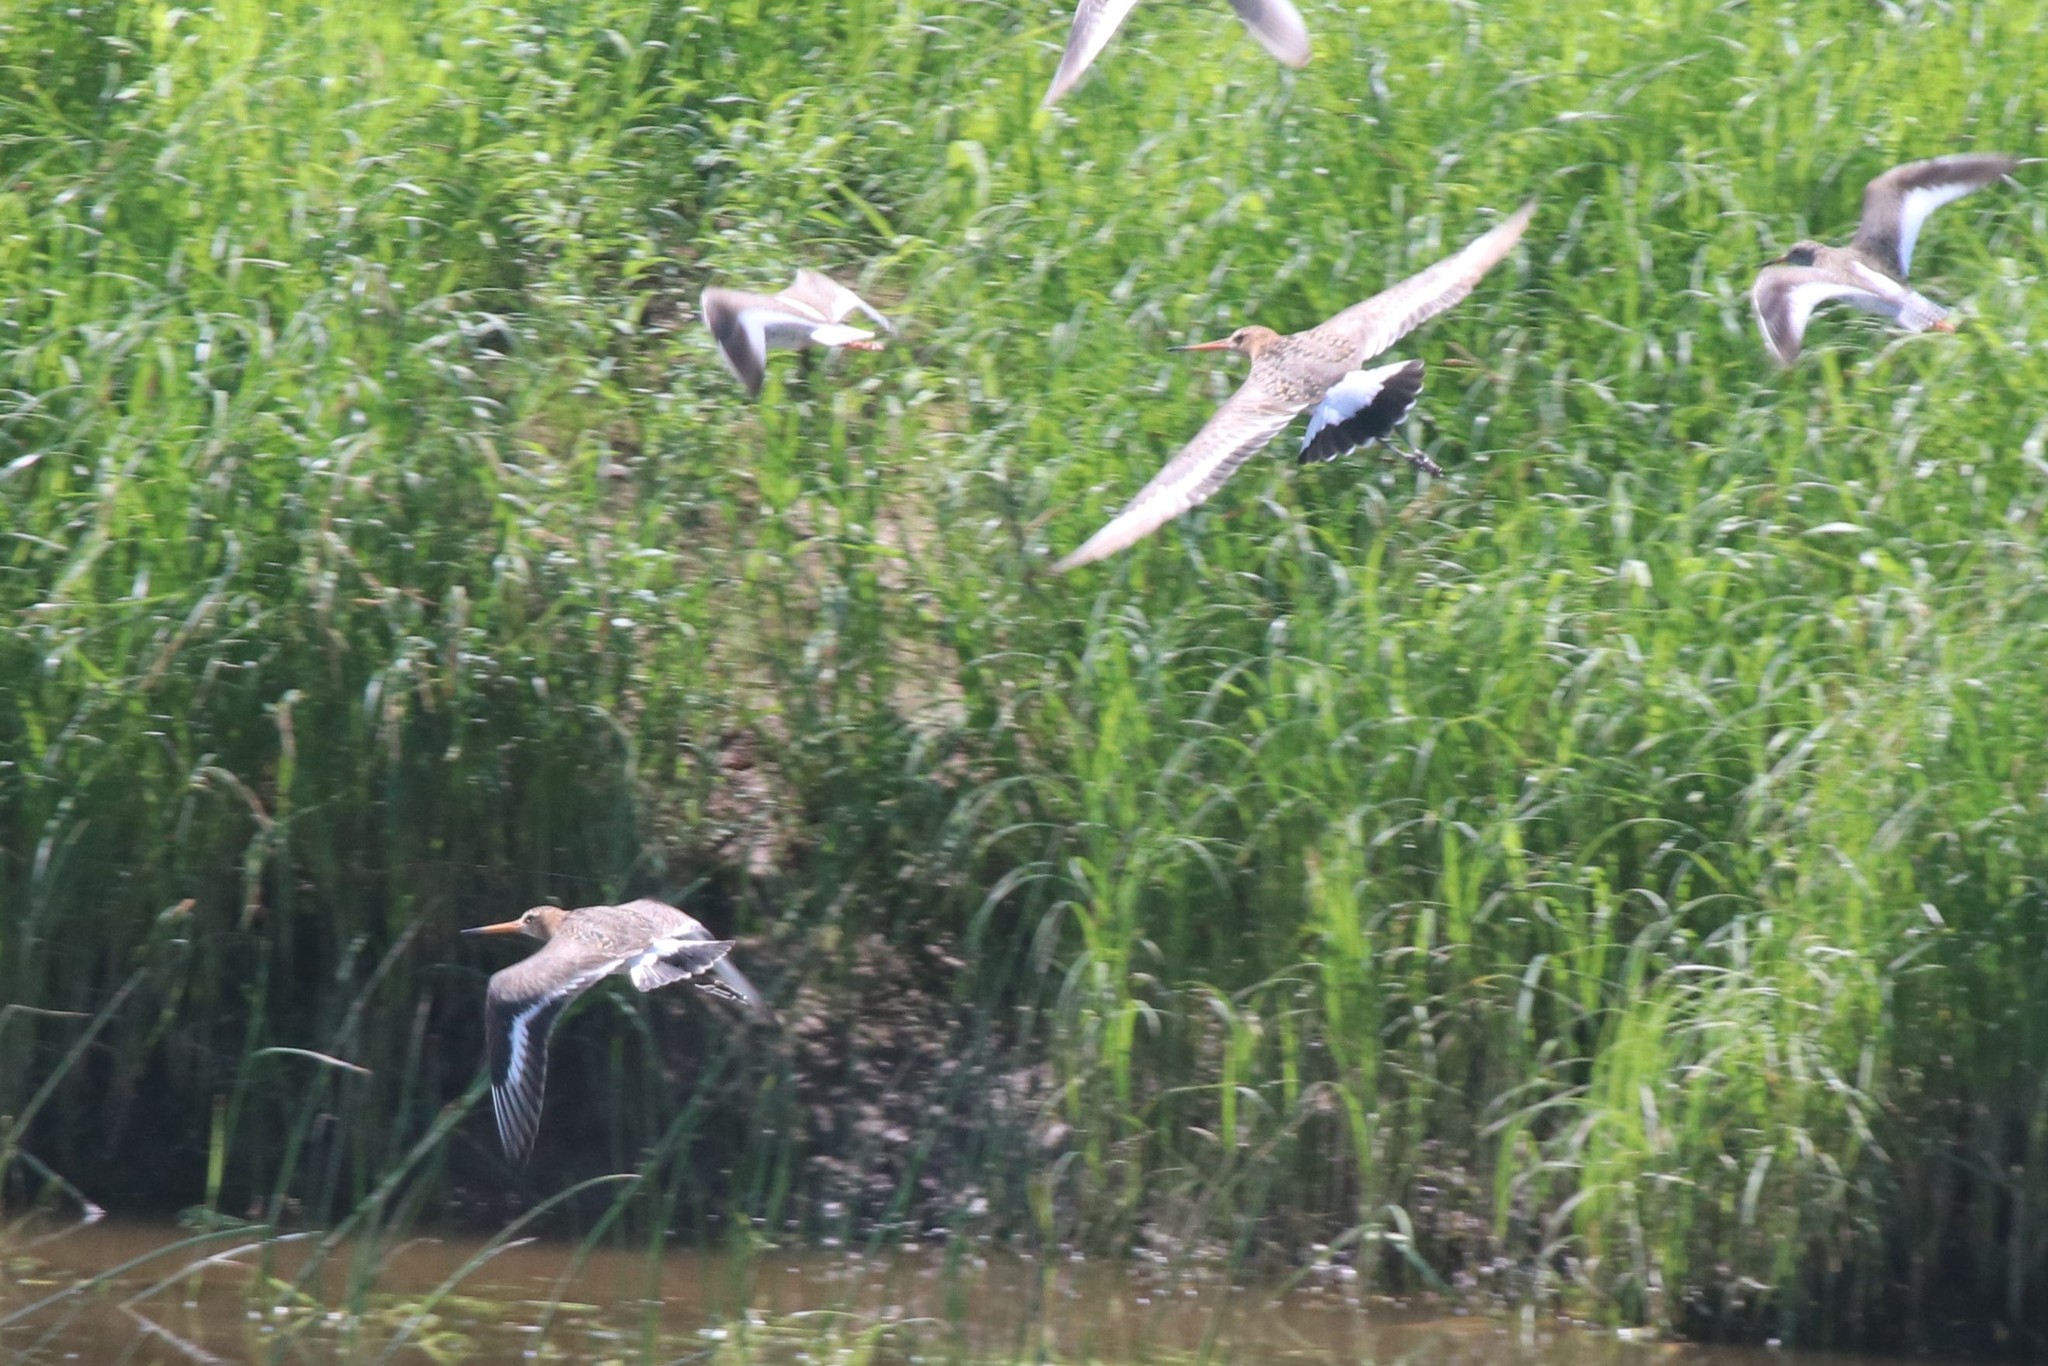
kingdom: Animalia
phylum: Chordata
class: Aves
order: Charadriiformes
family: Scolopacidae
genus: Limosa
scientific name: Limosa limosa
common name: Black-tailed godwit
